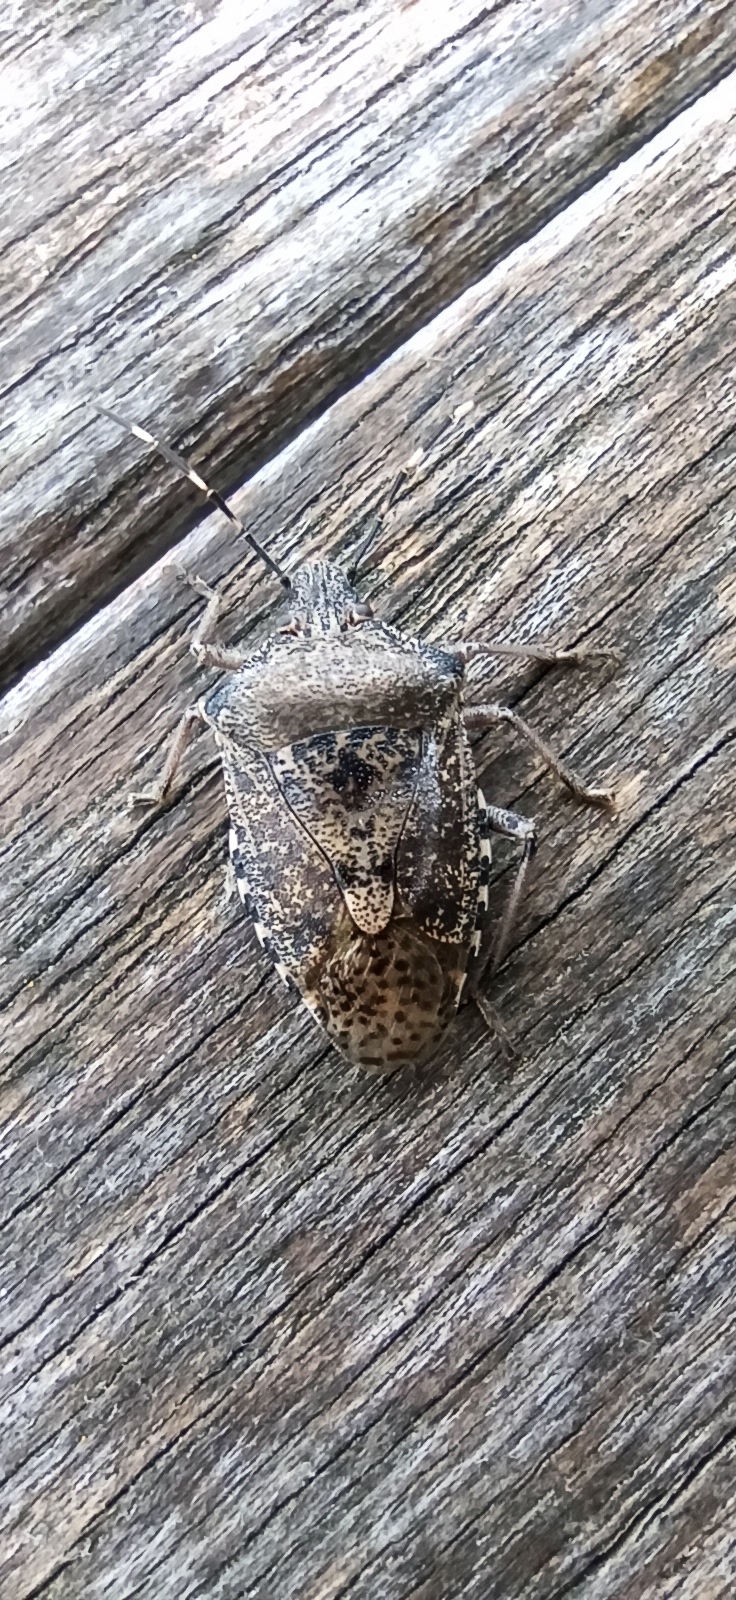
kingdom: Animalia
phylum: Arthropoda
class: Insecta
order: Hemiptera
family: Pentatomidae
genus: Rhaphigaster
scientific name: Rhaphigaster nebulosa
